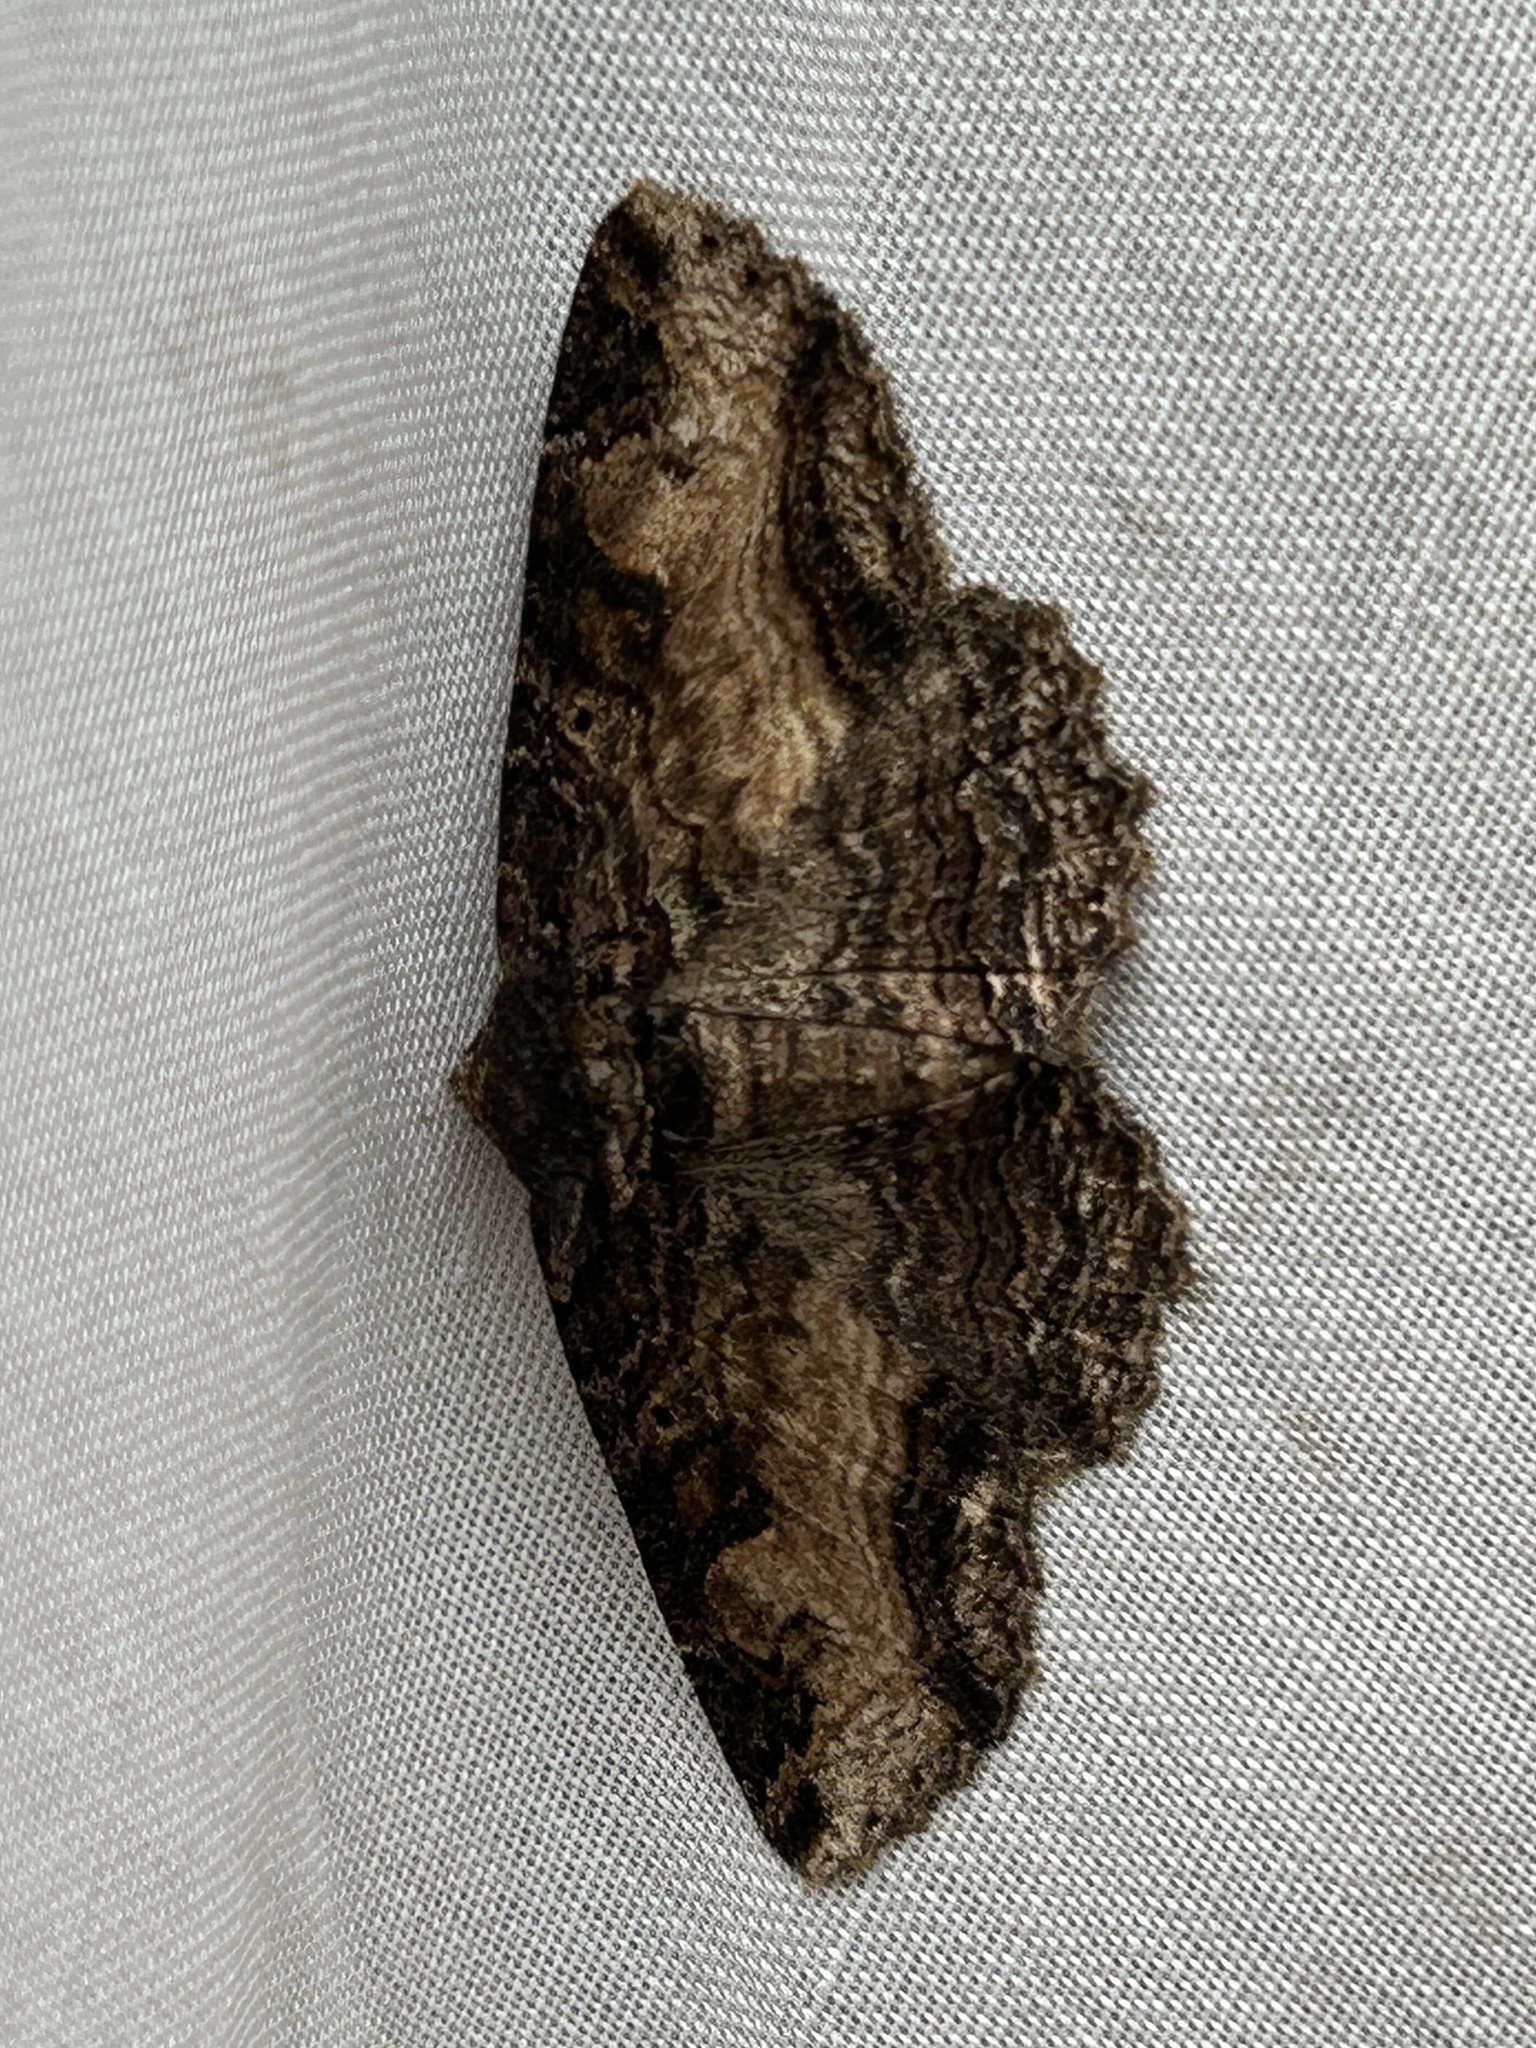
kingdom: Animalia
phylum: Arthropoda
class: Insecta
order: Lepidoptera
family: Erebidae
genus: Zale
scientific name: Zale minerea
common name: Colorful zale moth
